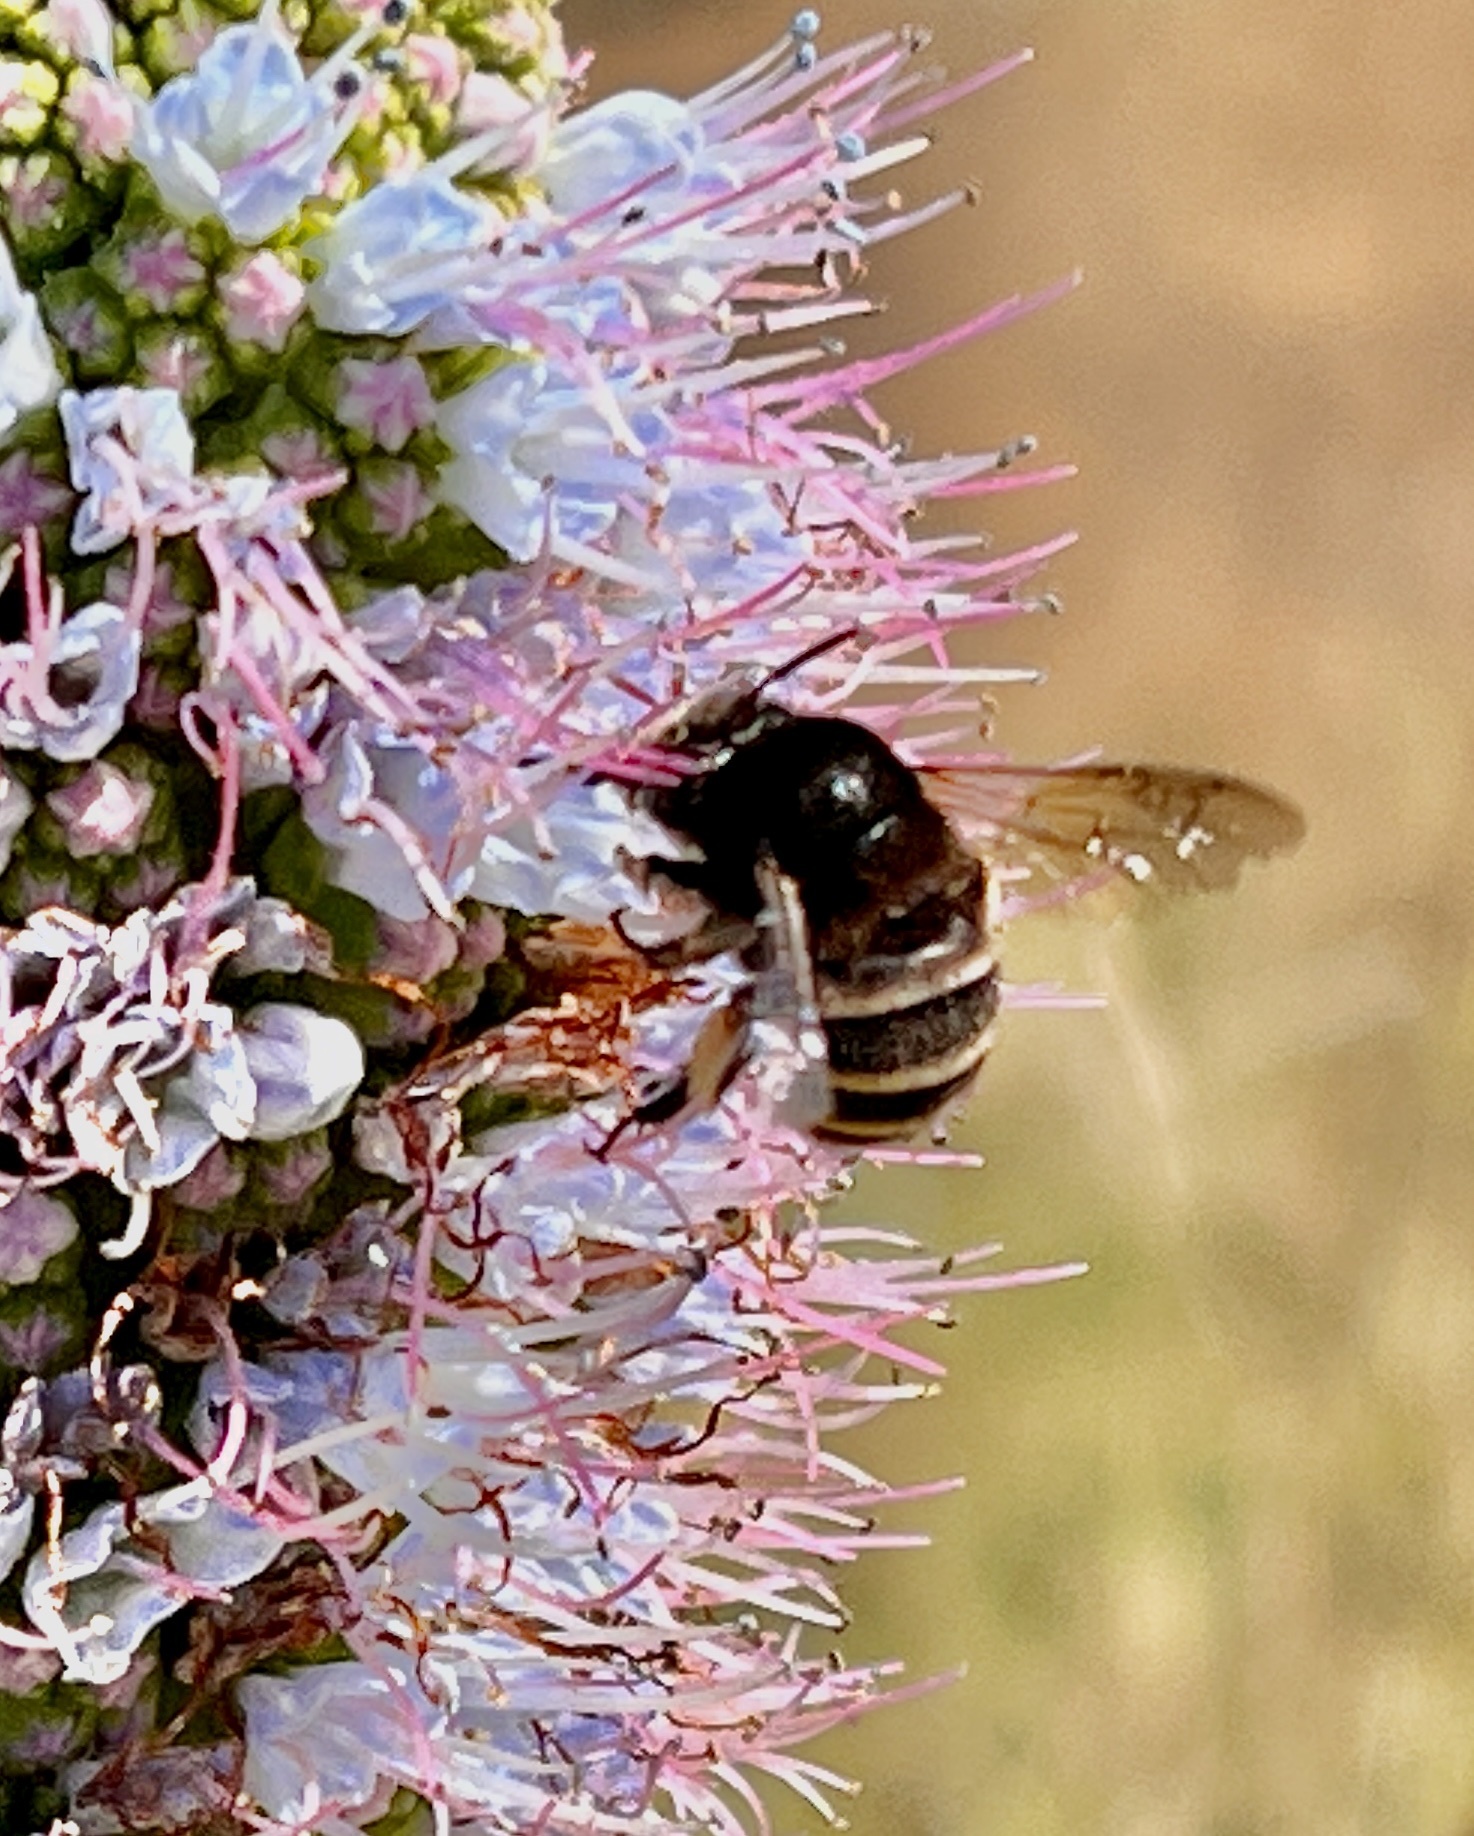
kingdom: Animalia
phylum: Arthropoda
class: Insecta
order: Hymenoptera
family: Apidae
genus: Amegilla
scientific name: Amegilla quadrifasciata
